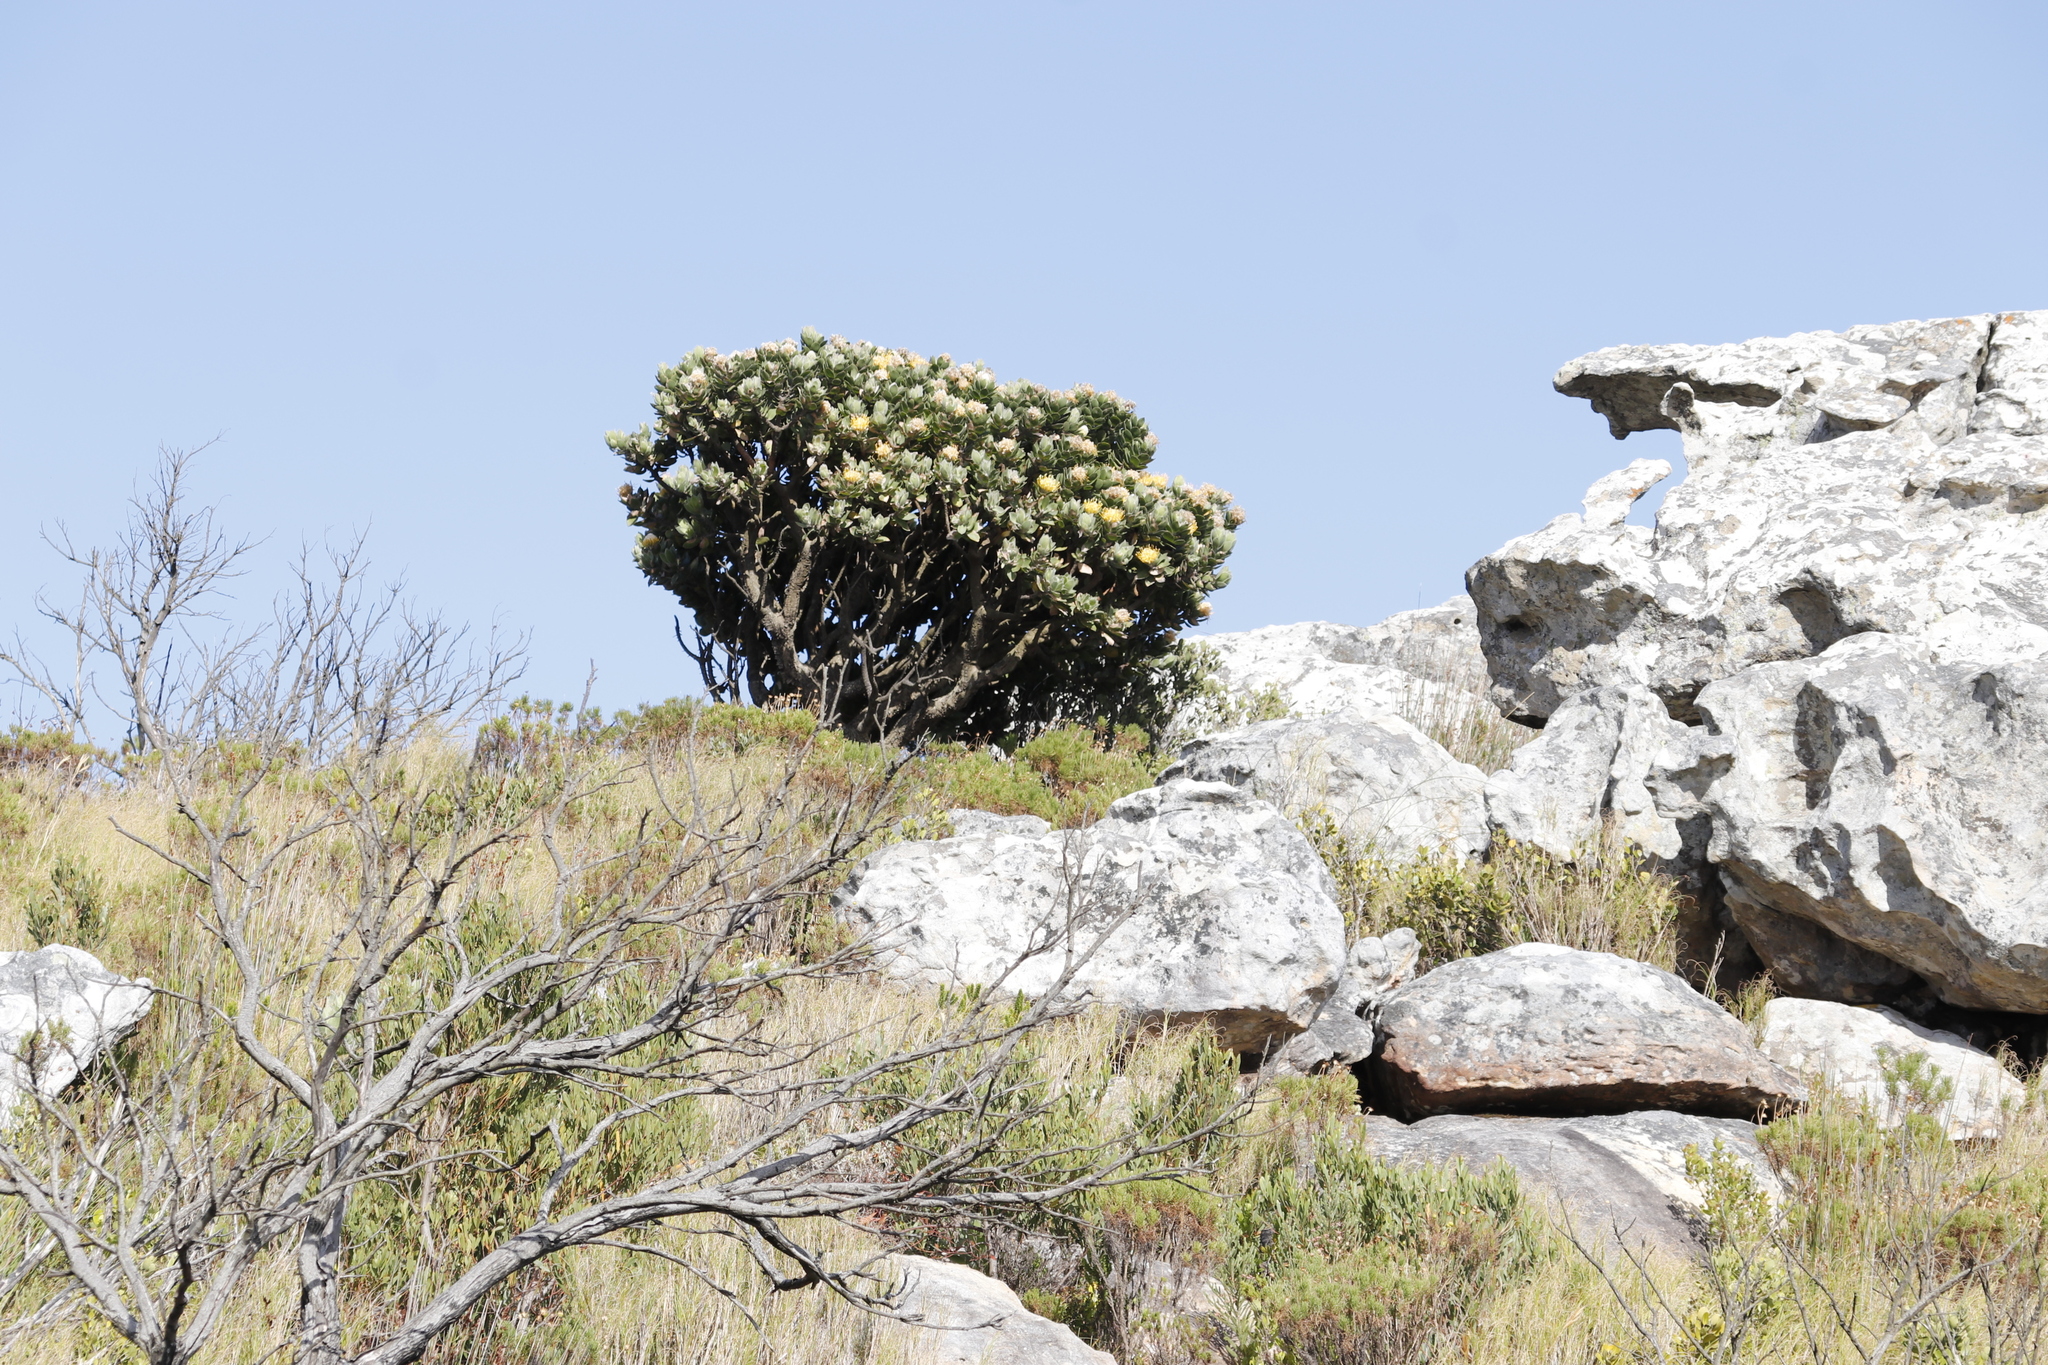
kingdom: Plantae
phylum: Tracheophyta
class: Magnoliopsida
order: Proteales
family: Proteaceae
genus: Leucospermum
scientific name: Leucospermum conocarpodendron
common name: Tree pincushion
